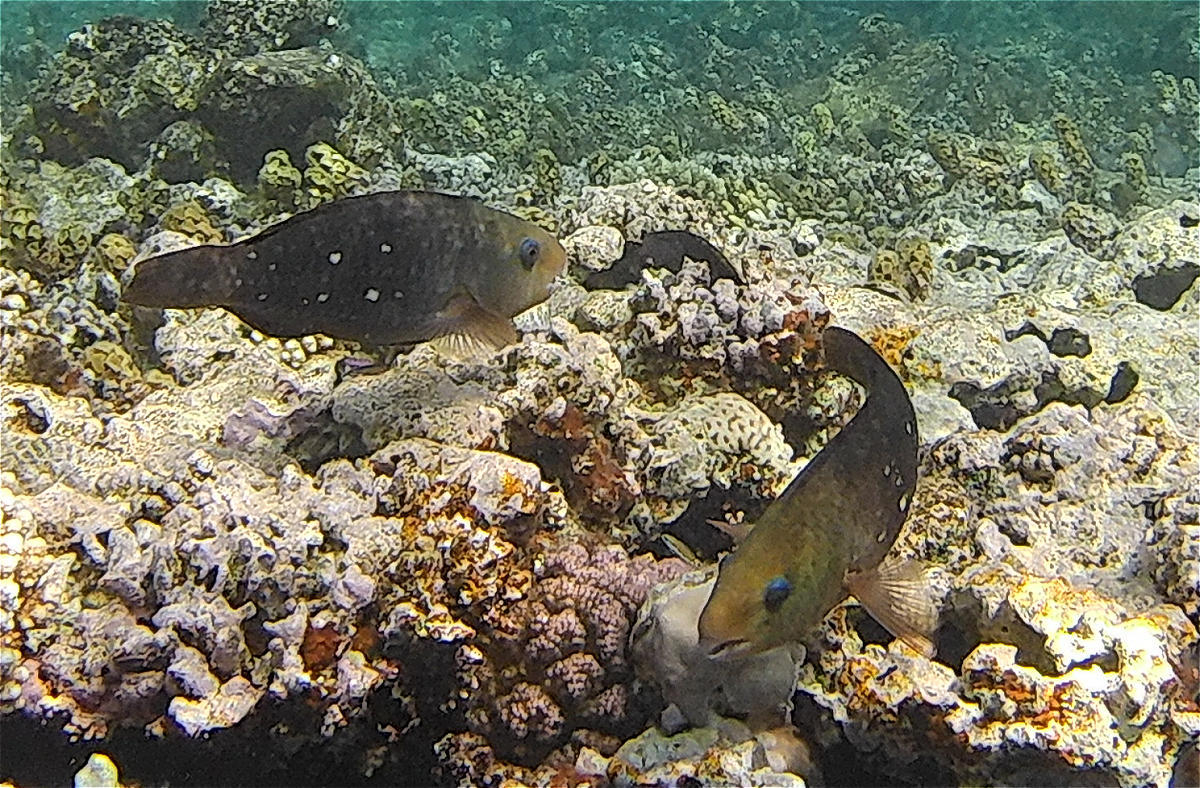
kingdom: Animalia
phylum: Chordata
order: Perciformes
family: Scaridae
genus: Chlorurus
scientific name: Chlorurus sordidus
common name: Bullethead parrotfish
